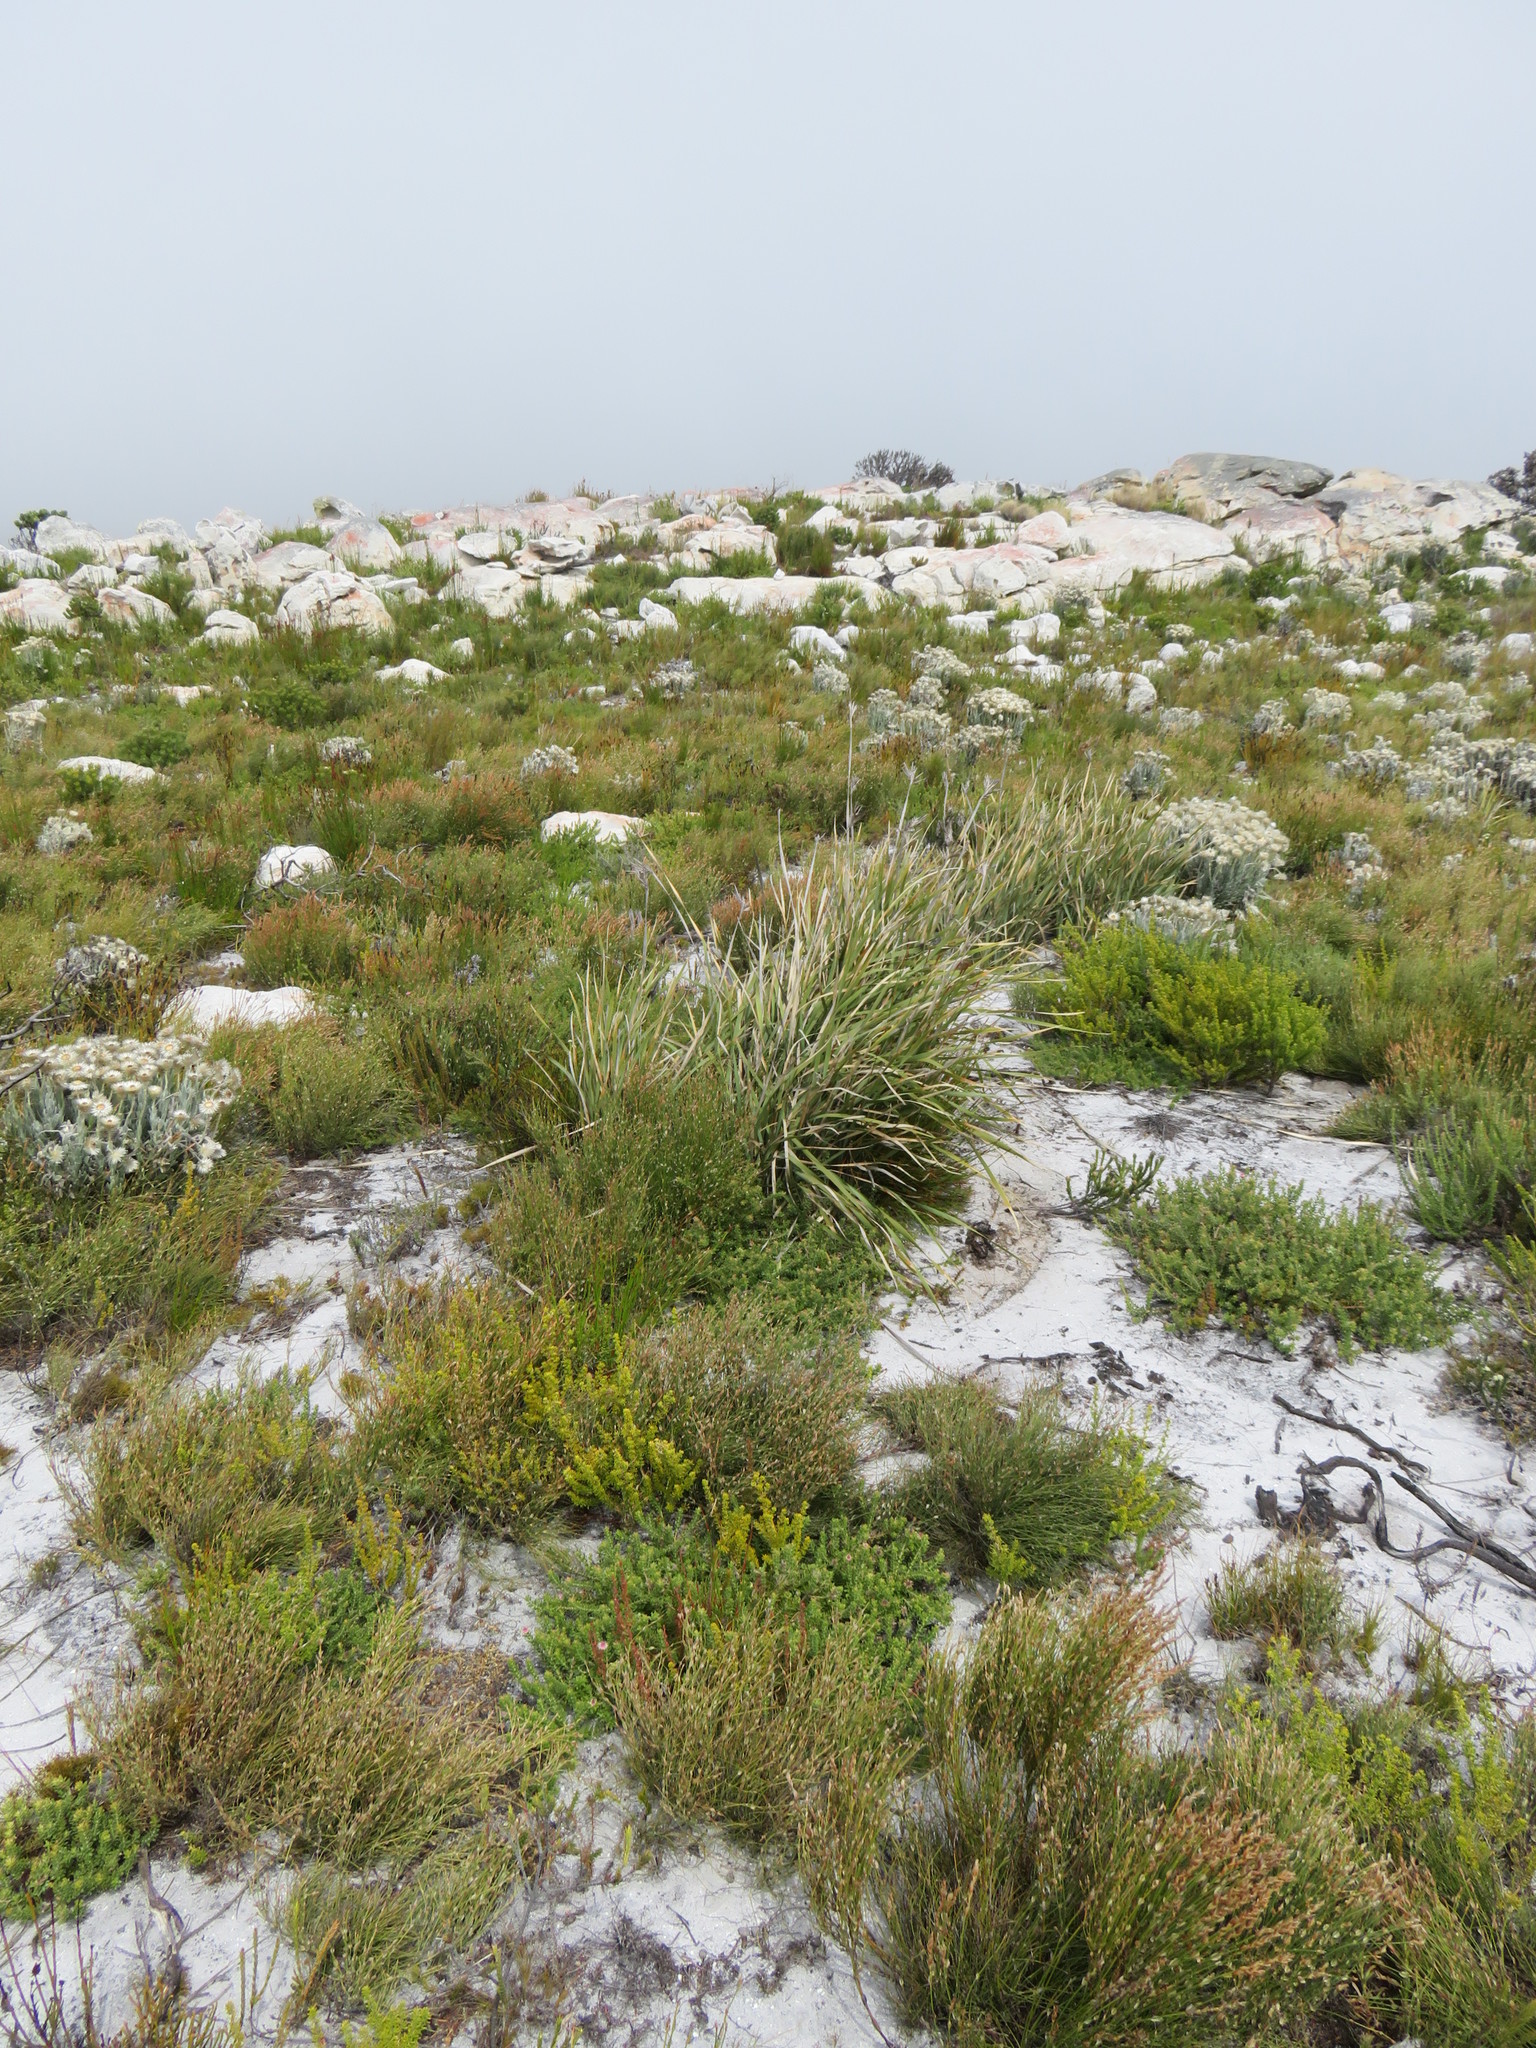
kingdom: Plantae
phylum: Tracheophyta
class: Liliopsida
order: Asparagales
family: Iridaceae
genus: Bobartia
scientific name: Bobartia gladiata
